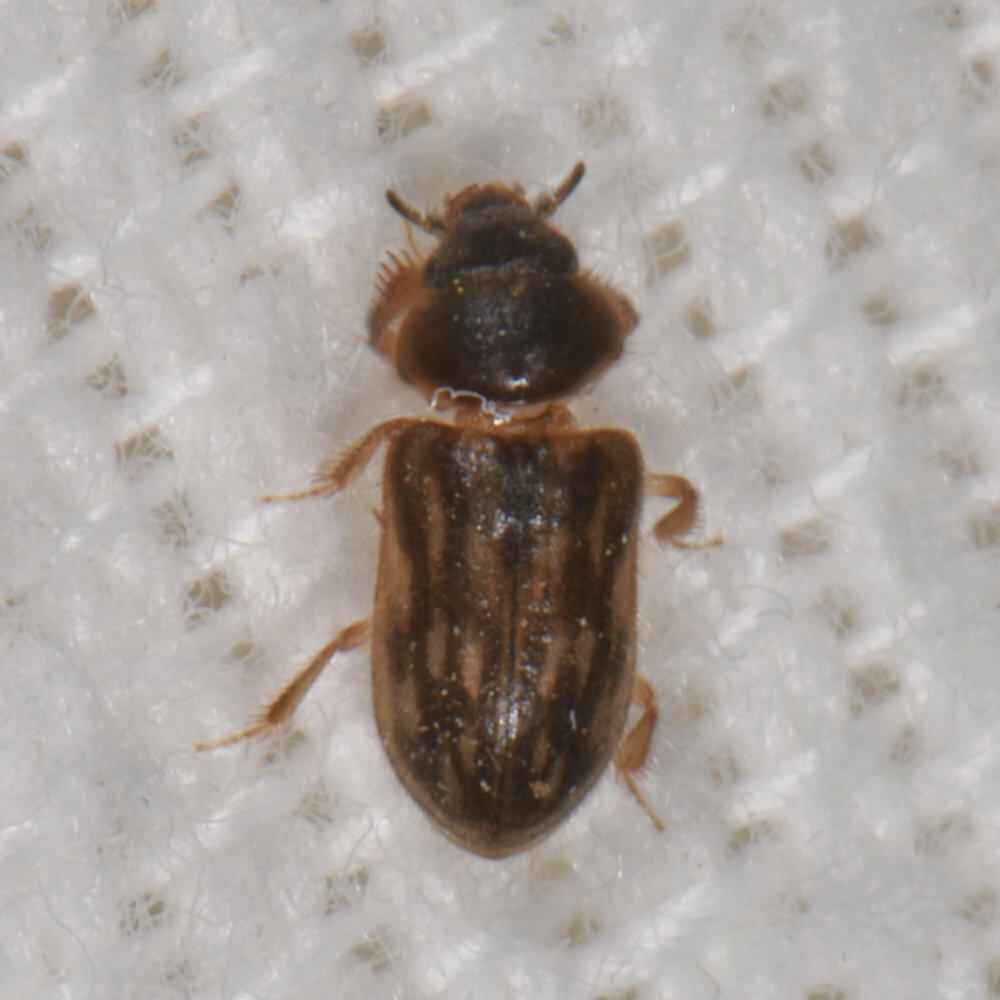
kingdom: Animalia
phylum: Arthropoda
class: Insecta
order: Coleoptera
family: Heteroceridae
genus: Heterocerus
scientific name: Heterocerus fenestratus
